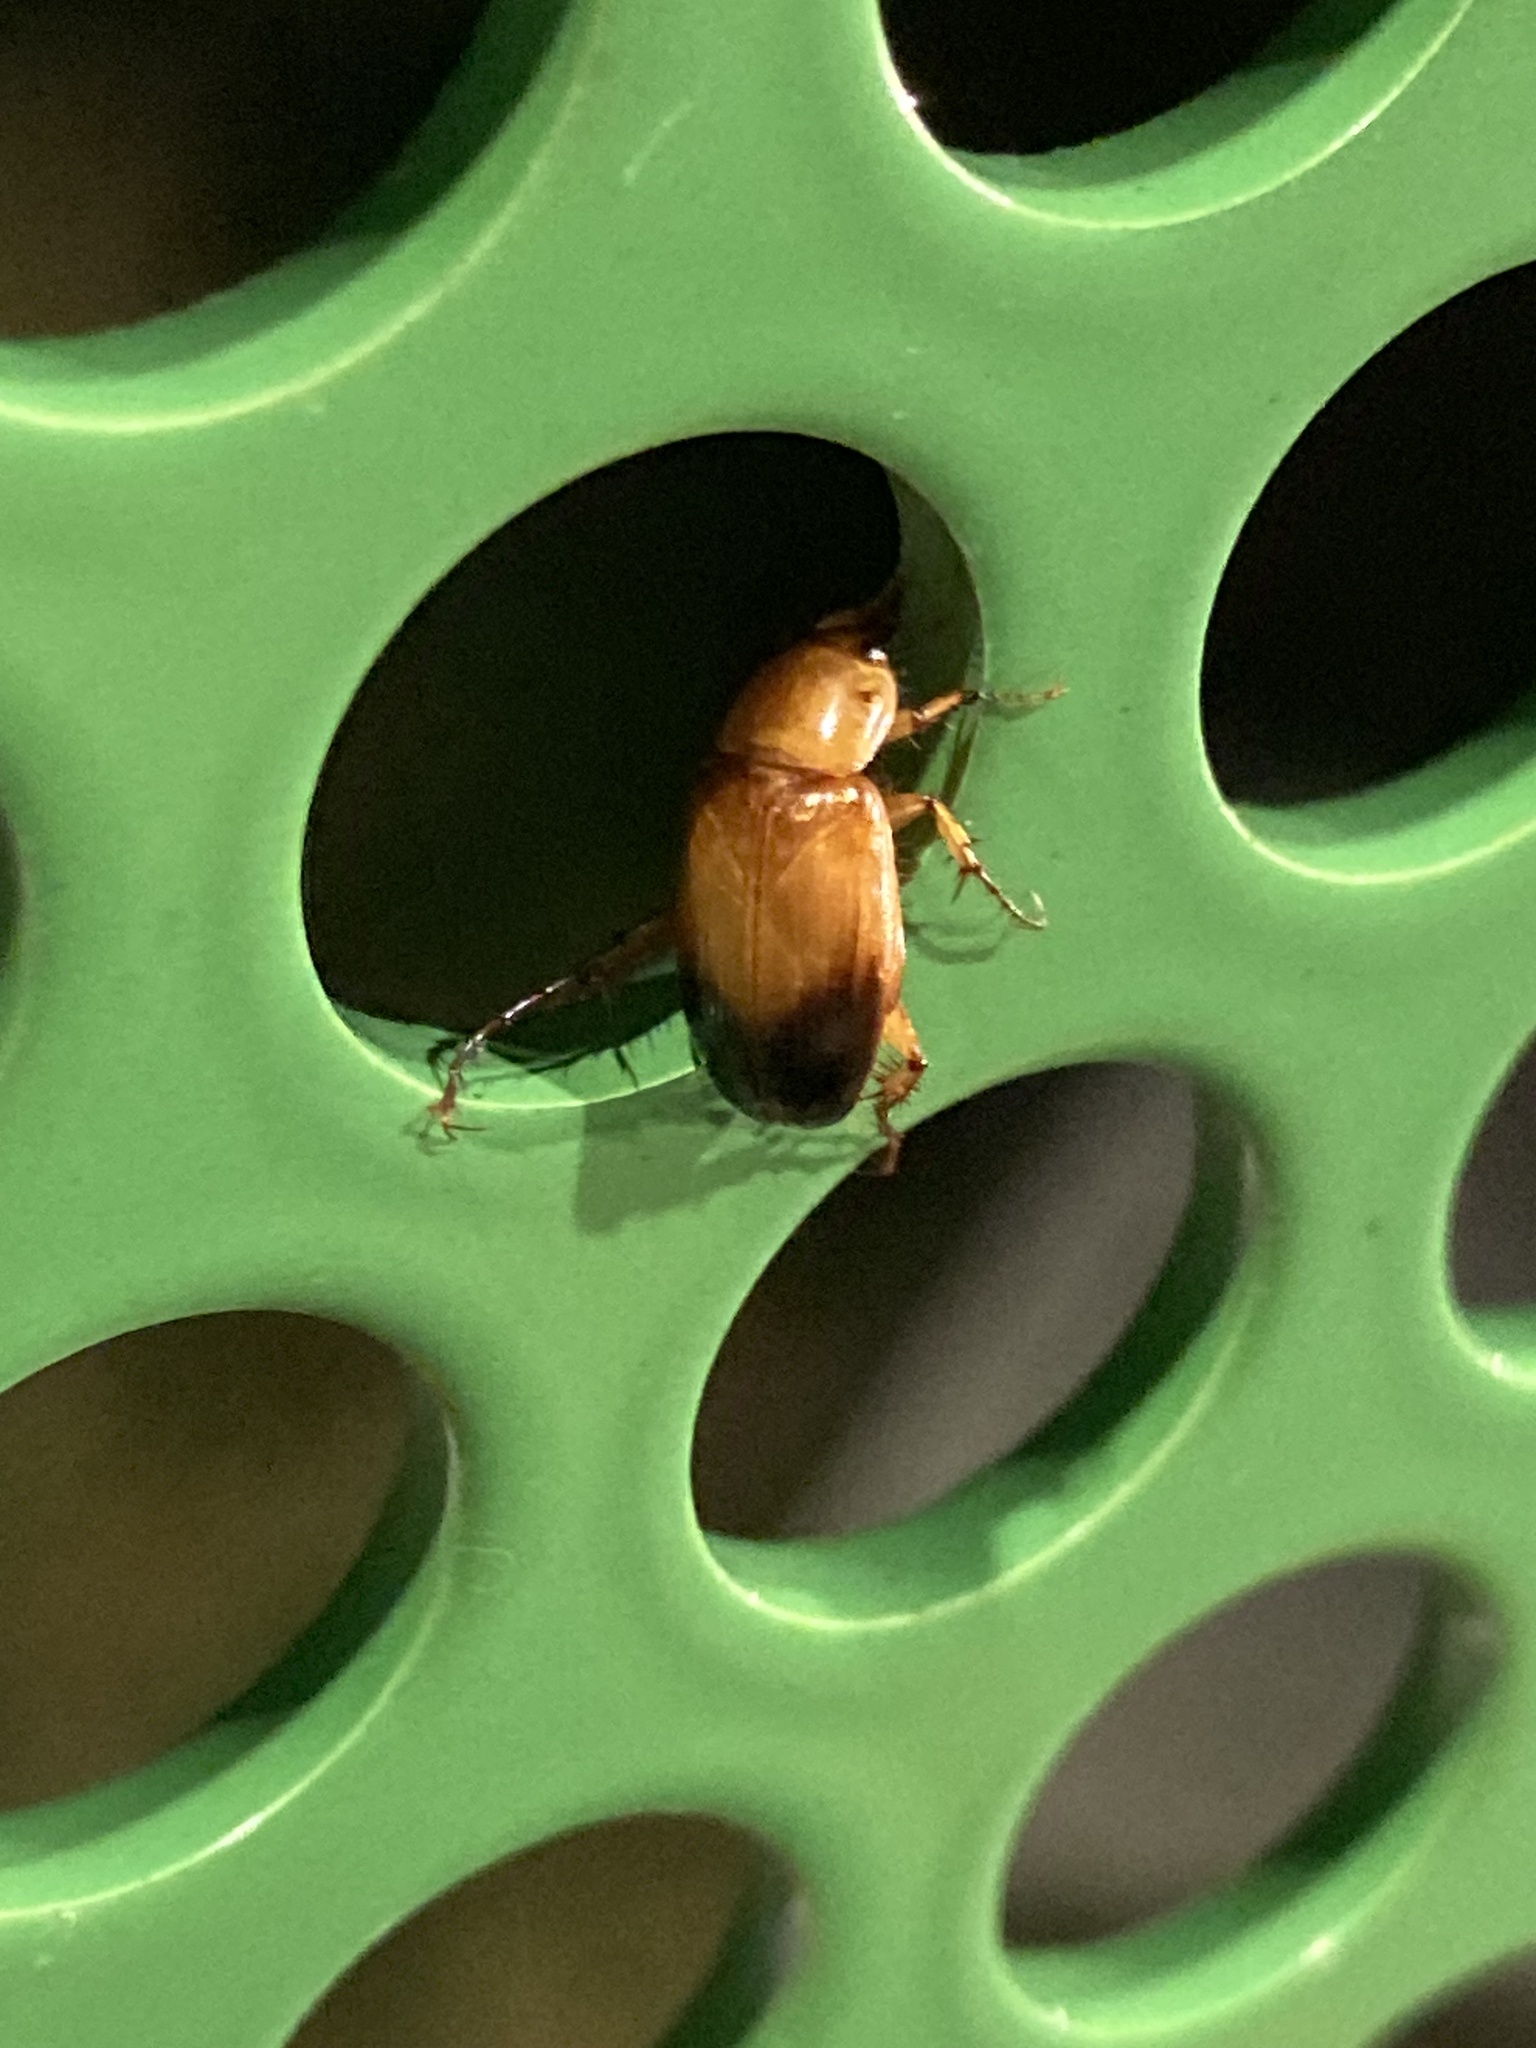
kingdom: Animalia
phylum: Arthropoda
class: Insecta
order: Coleoptera
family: Scarabaeidae
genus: Phyllotocus
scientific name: Phyllotocus macleayi
